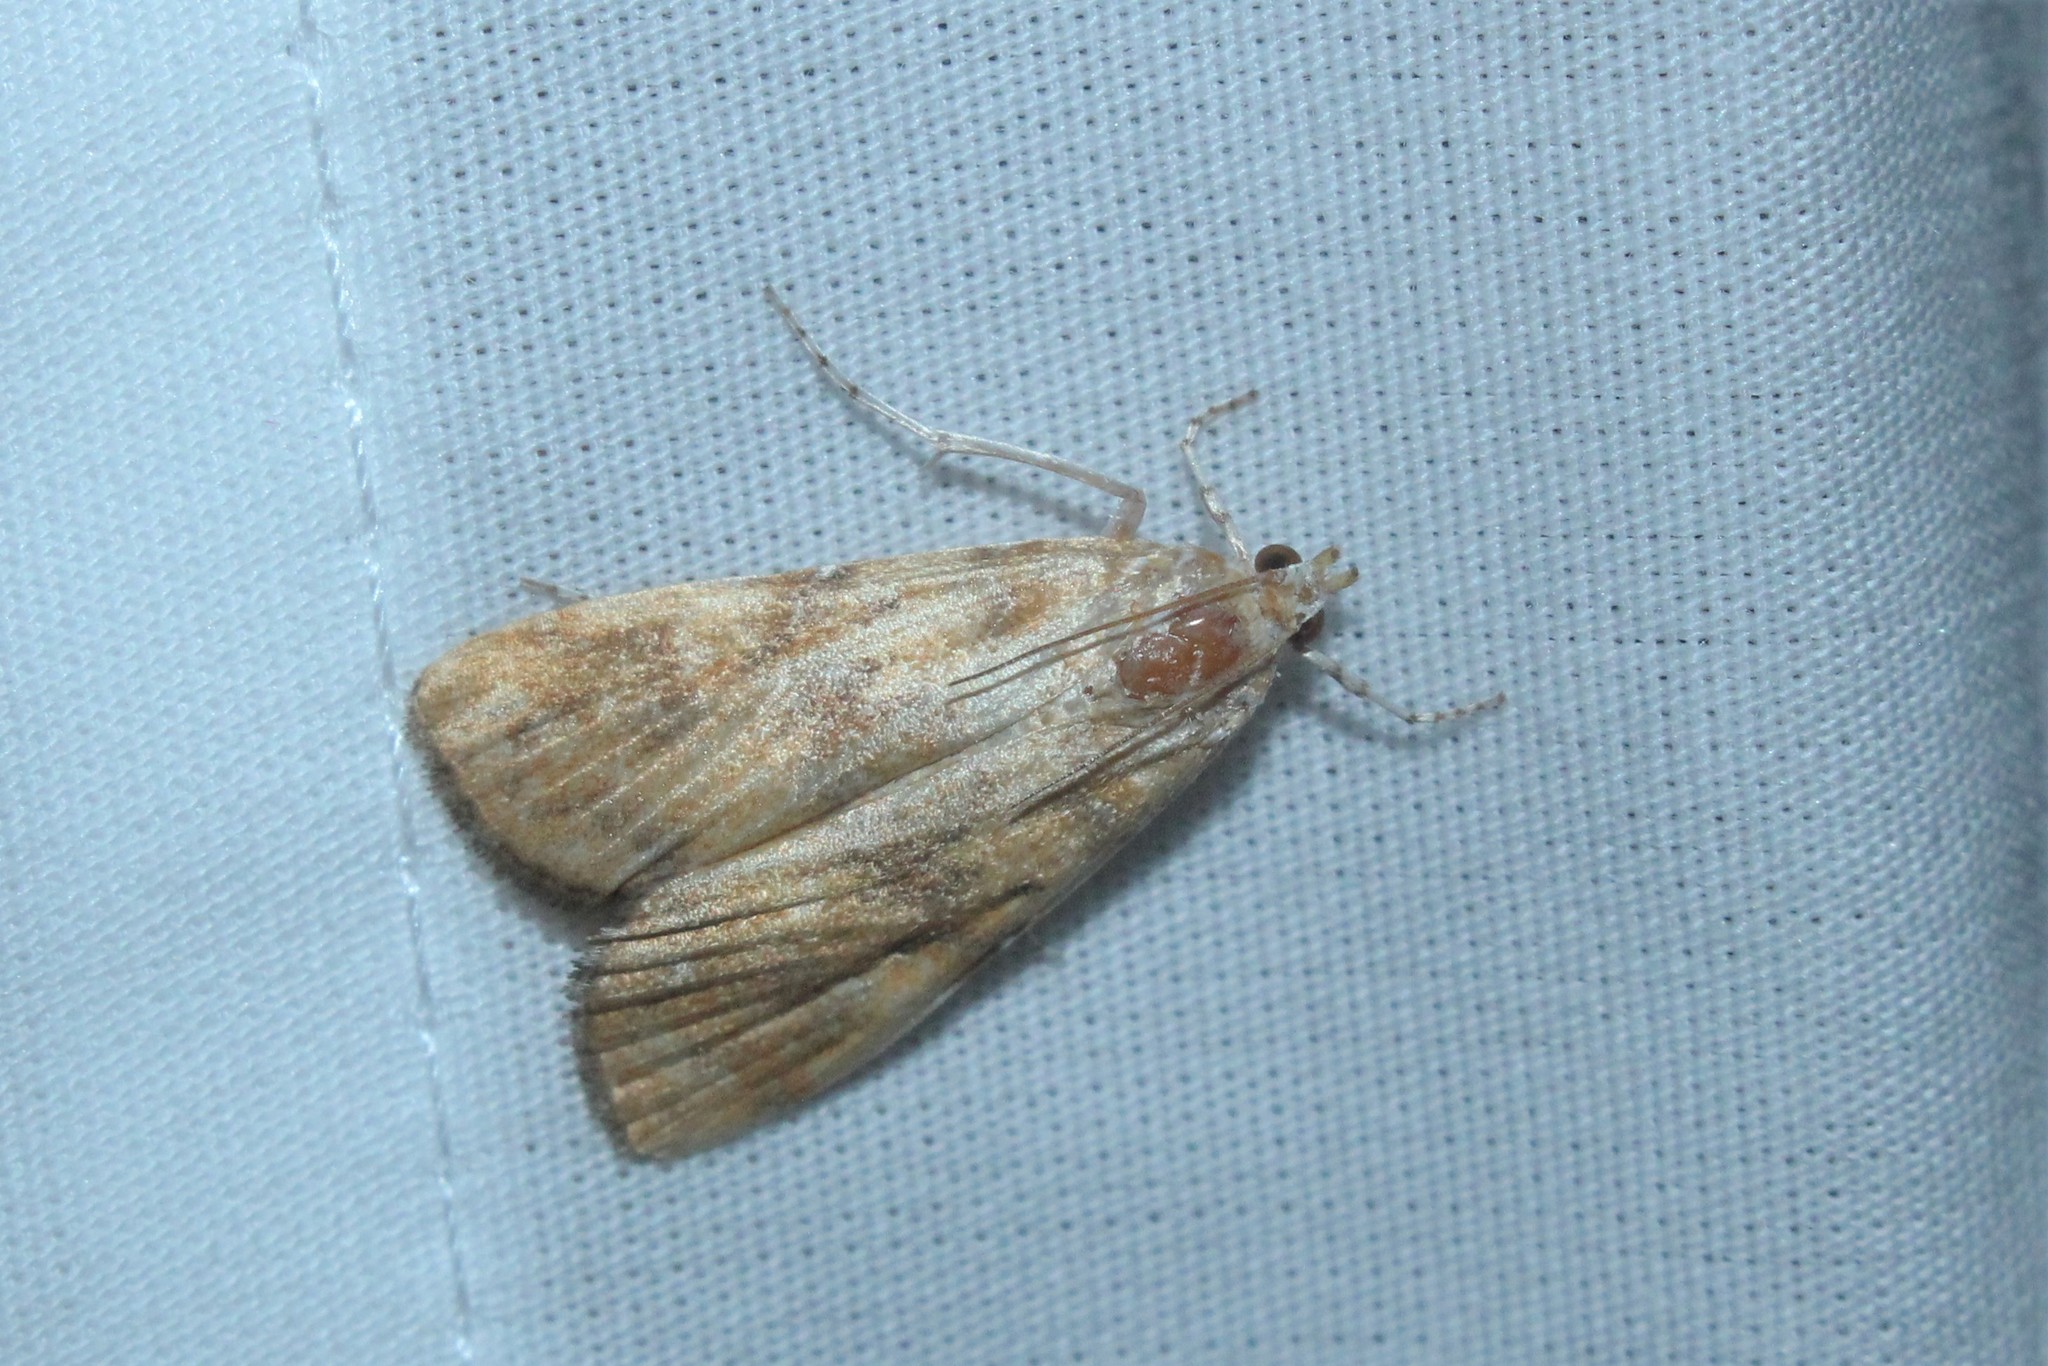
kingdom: Animalia
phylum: Arthropoda
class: Insecta
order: Lepidoptera
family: Crambidae
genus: Elophila
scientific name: Elophila gyralis
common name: Waterlily borer moth
